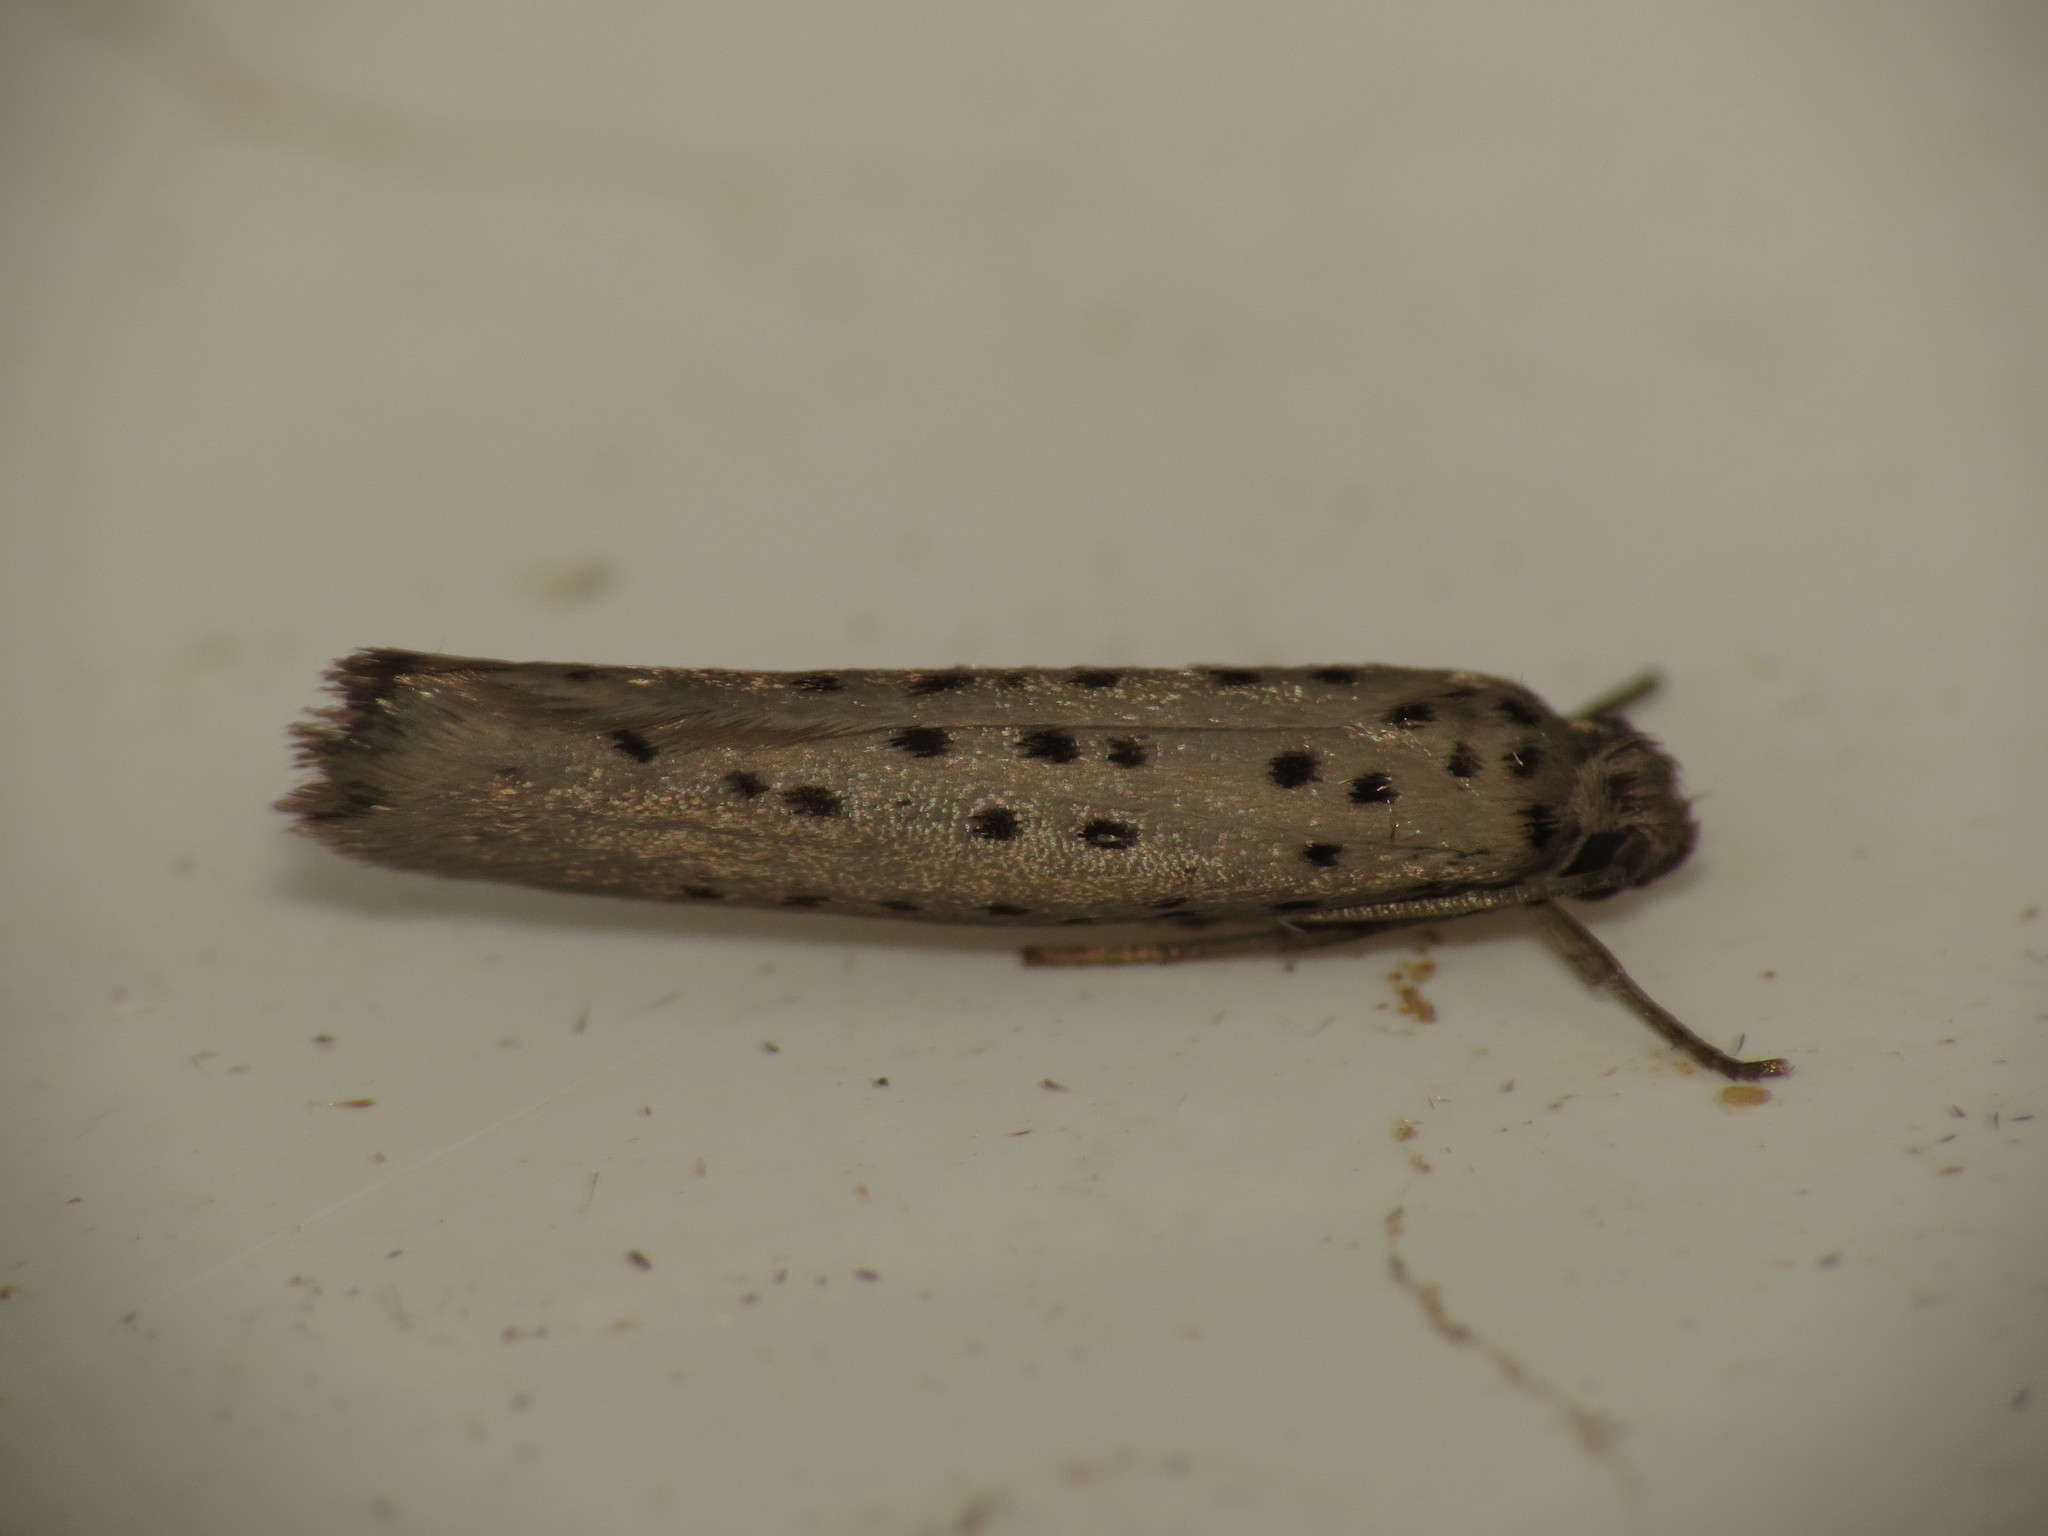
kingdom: Animalia
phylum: Arthropoda
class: Insecta
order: Lepidoptera
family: Yponomeutidae
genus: Yponomeuta
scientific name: Yponomeuta vigintipunctata
